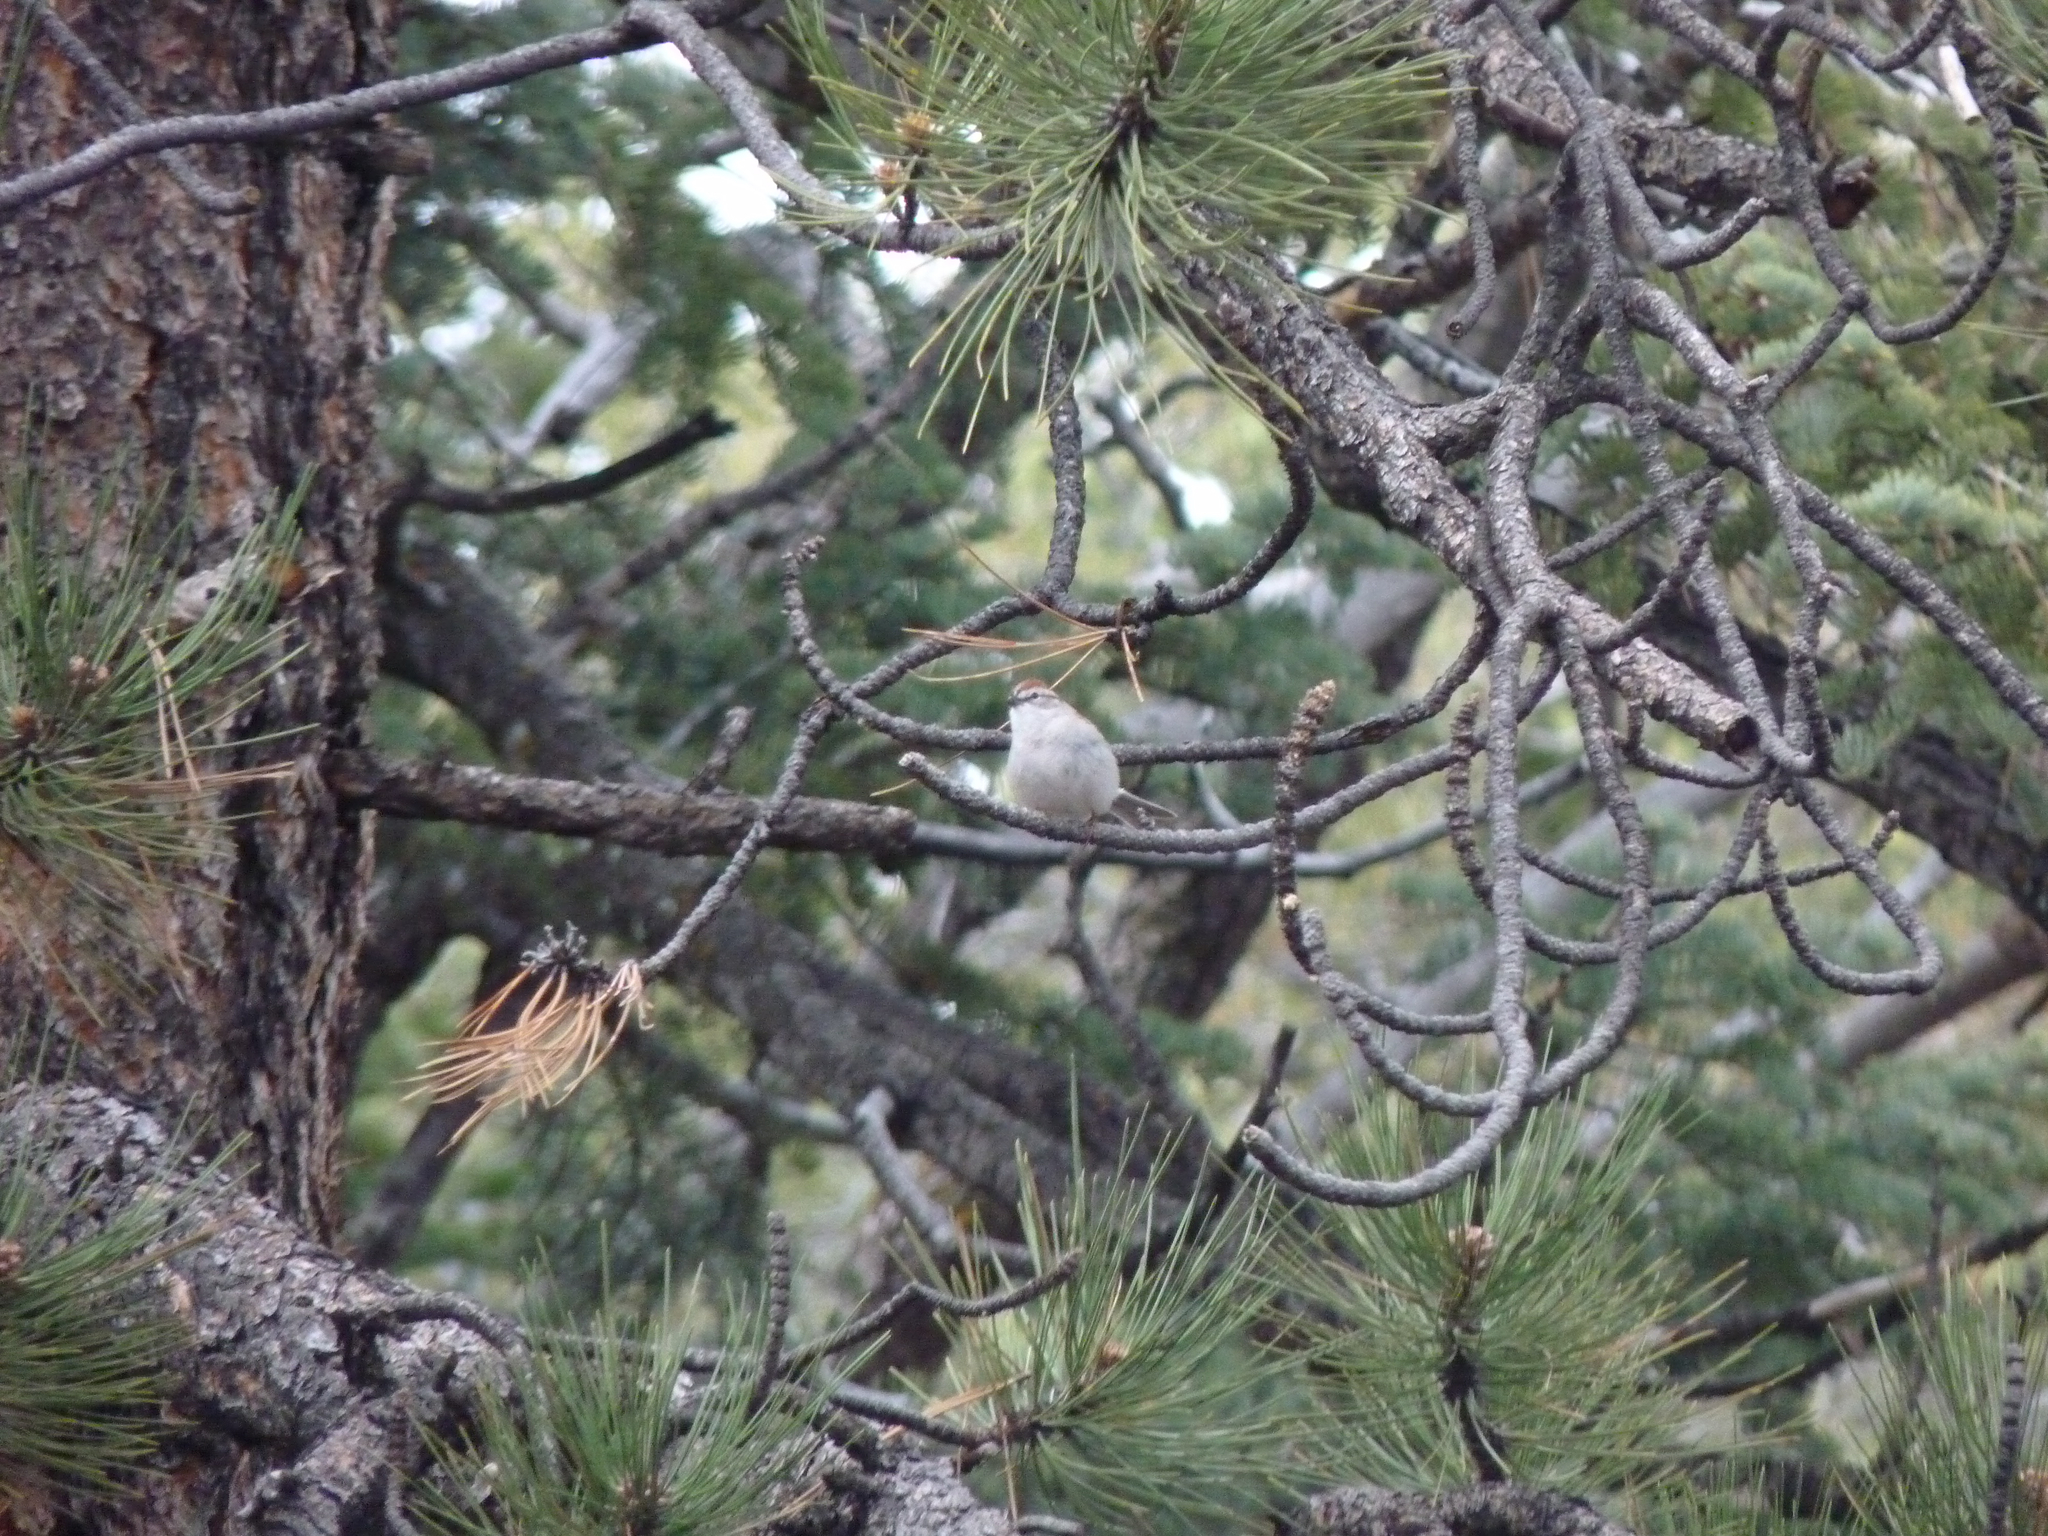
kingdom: Animalia
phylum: Chordata
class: Aves
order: Passeriformes
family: Passerellidae
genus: Spizella
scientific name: Spizella passerina
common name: Chipping sparrow
